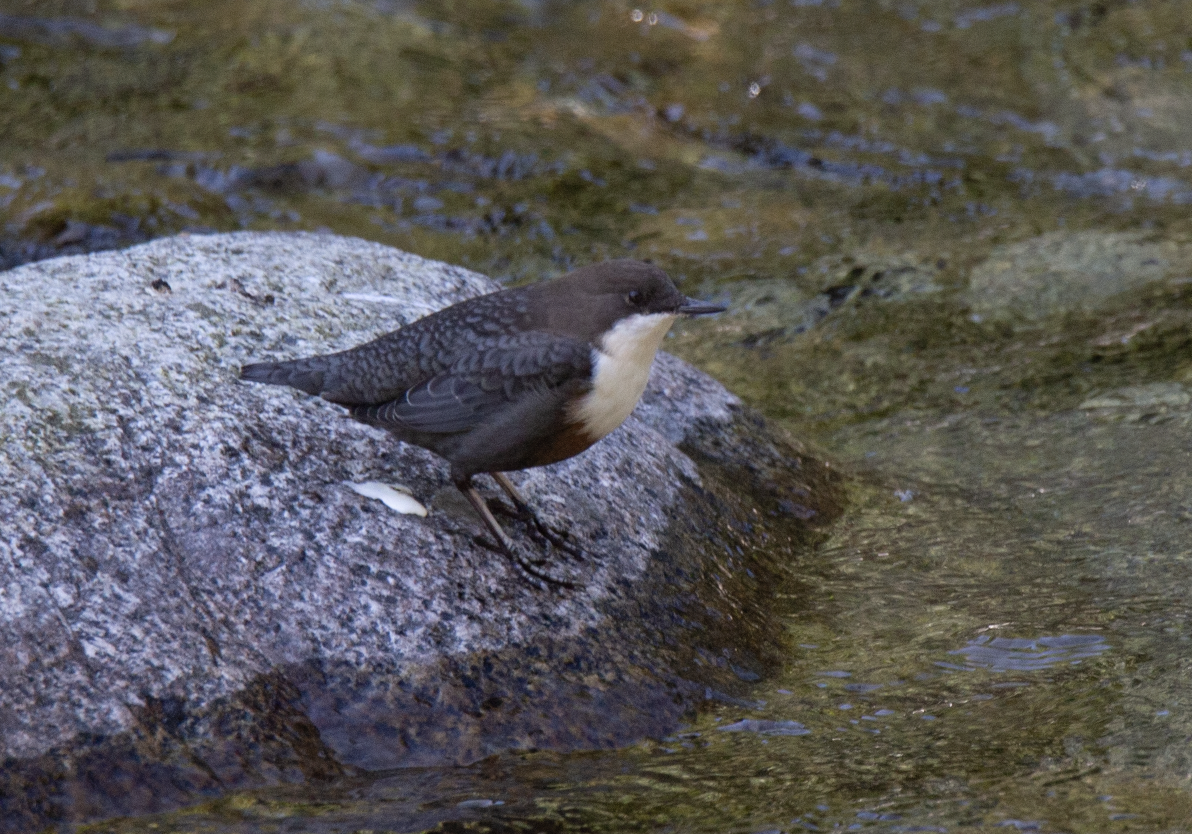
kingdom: Animalia
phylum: Chordata
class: Aves
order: Passeriformes
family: Cinclidae
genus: Cinclus
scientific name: Cinclus cinclus
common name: White-throated dipper
